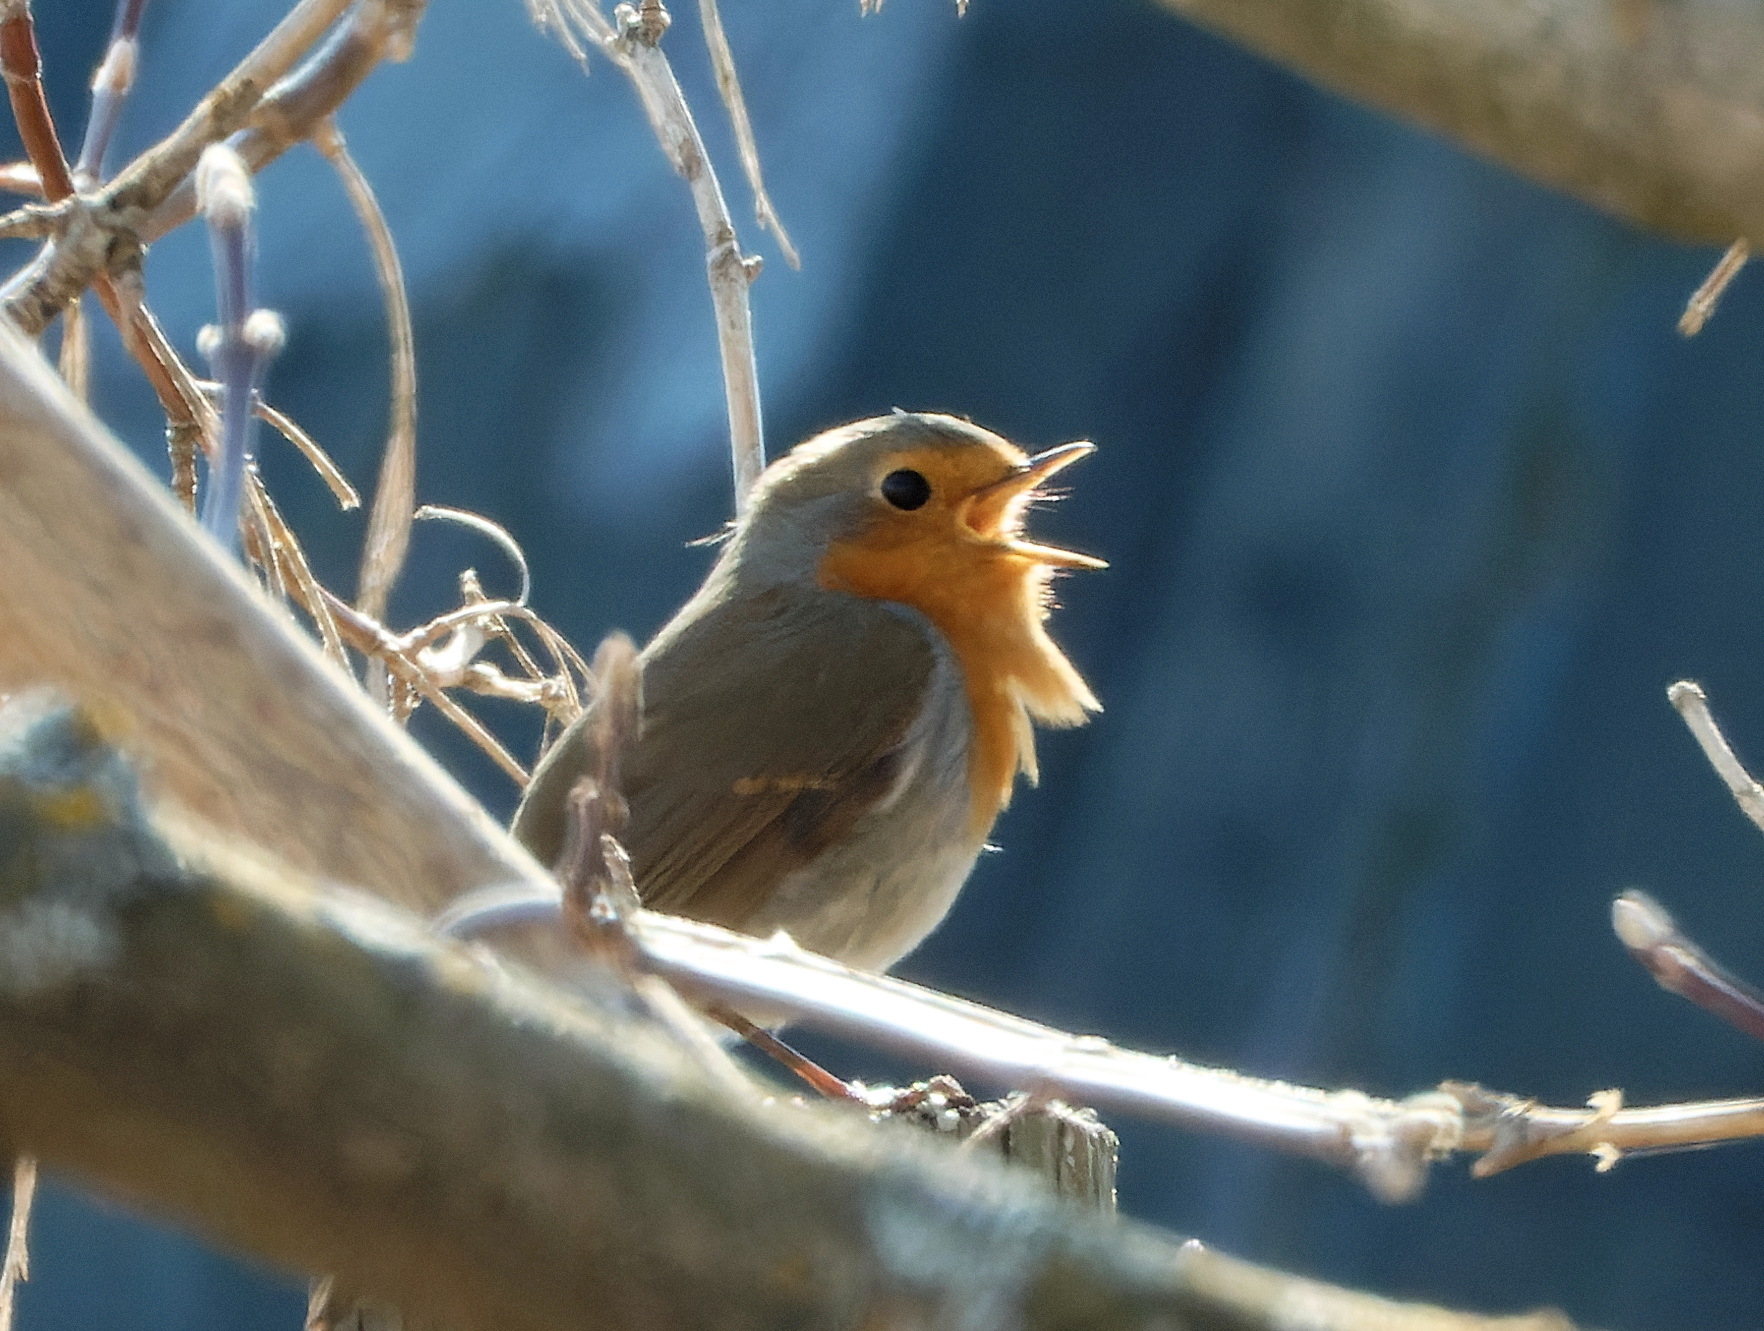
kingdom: Animalia
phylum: Chordata
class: Aves
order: Passeriformes
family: Muscicapidae
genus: Erithacus
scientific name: Erithacus rubecula
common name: European robin
